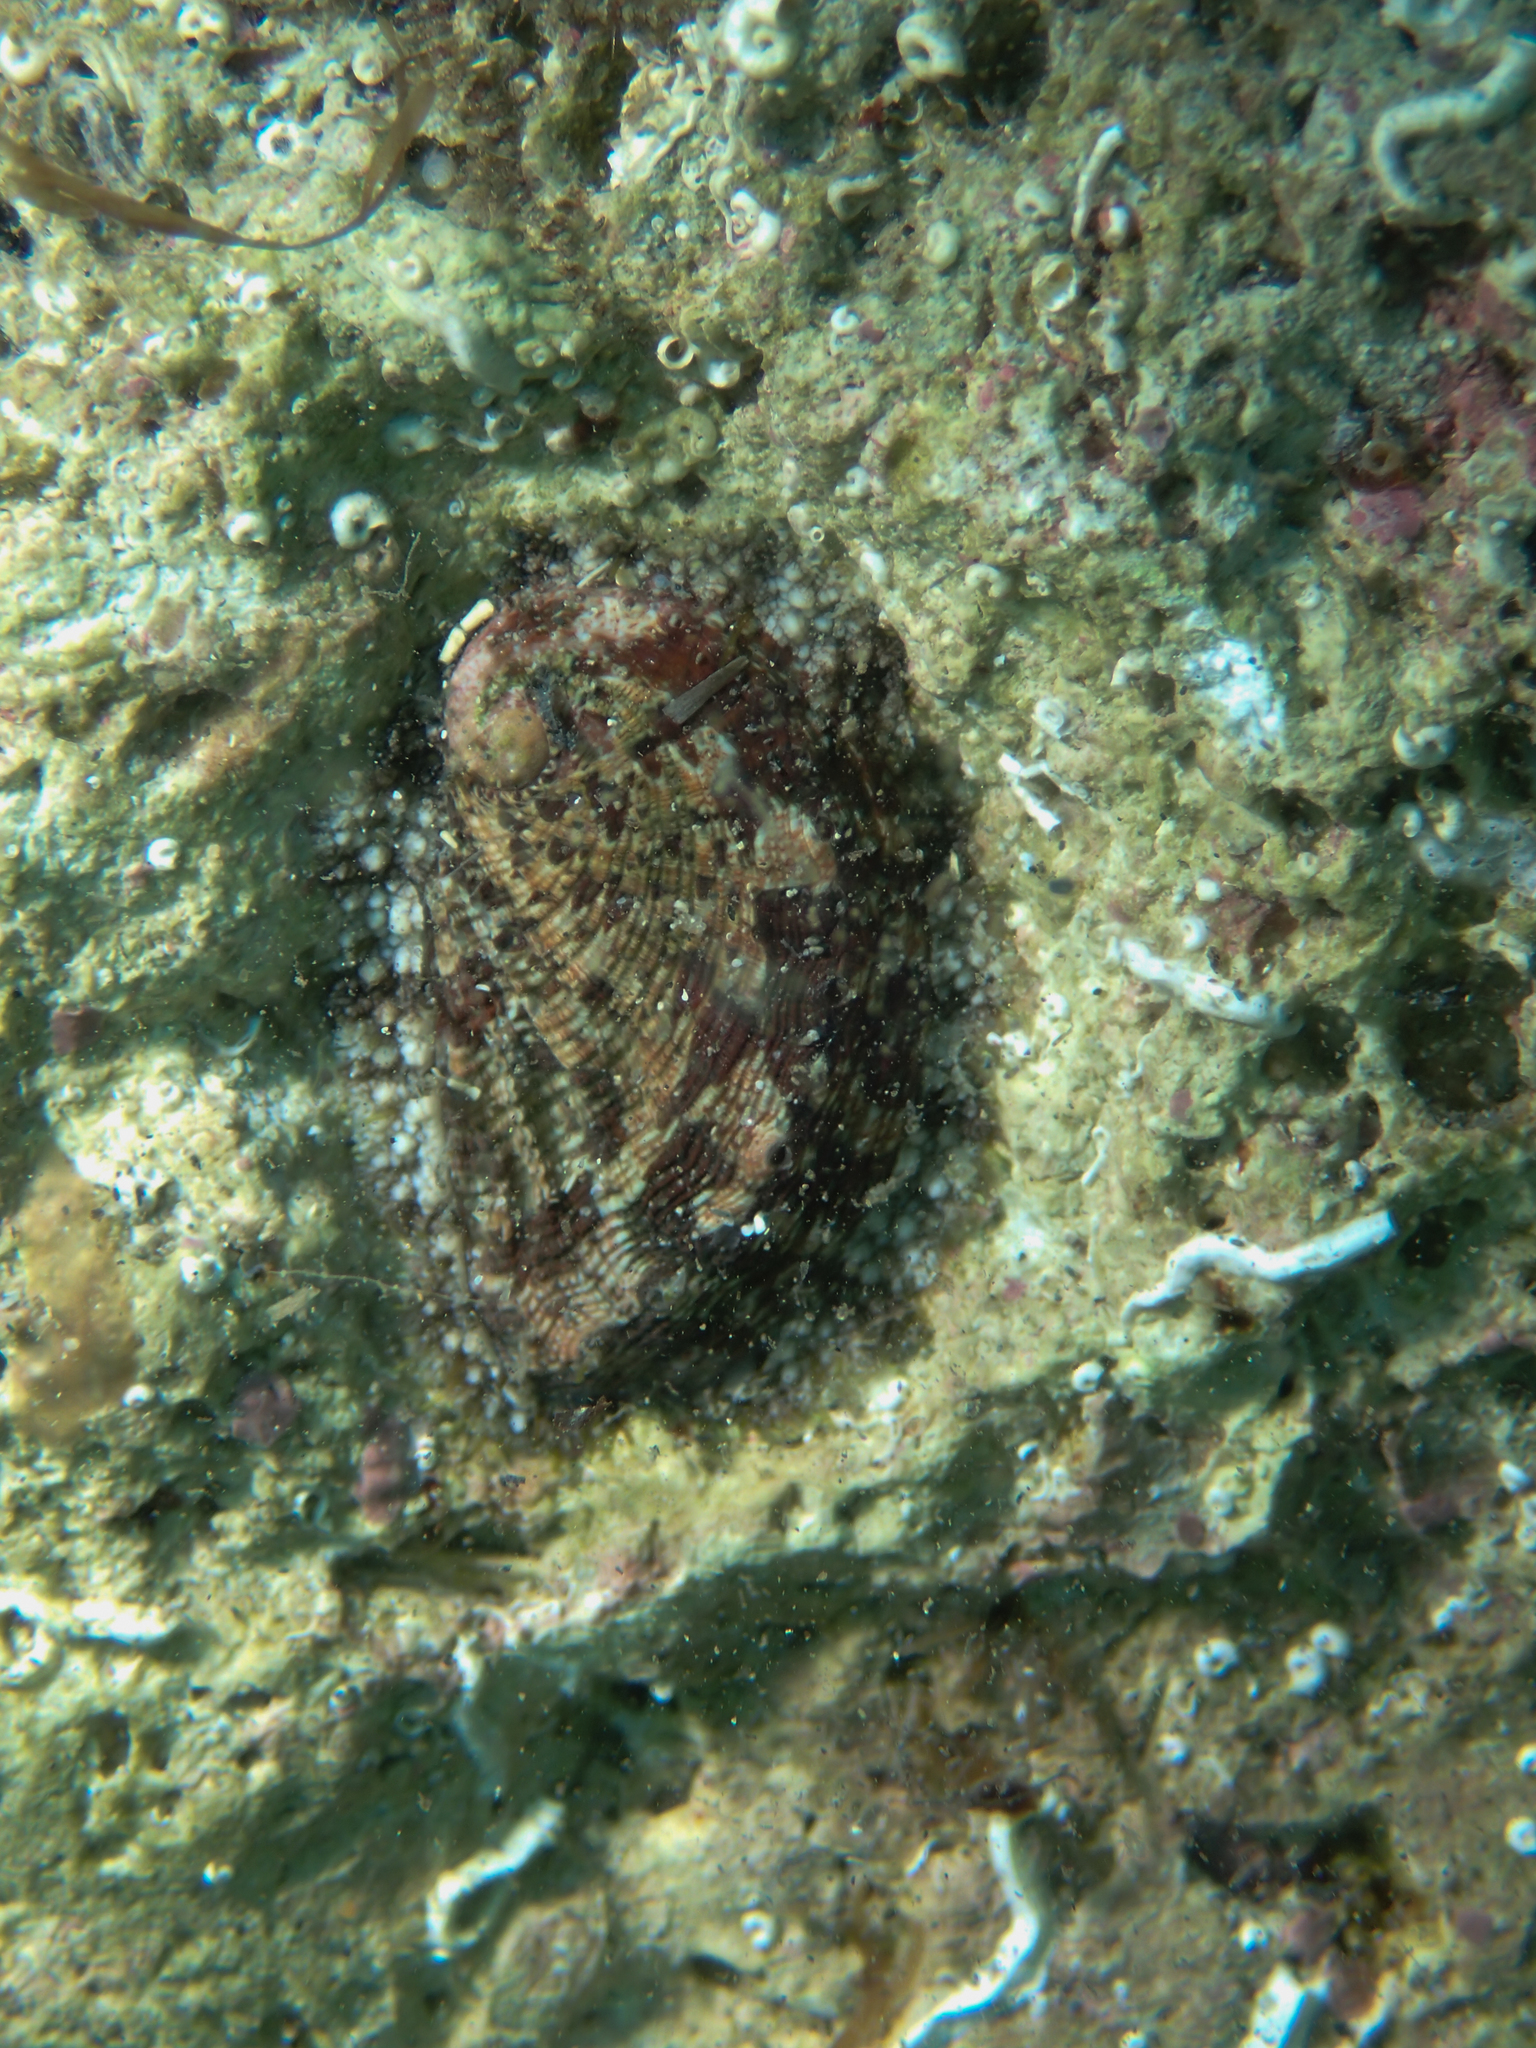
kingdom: Animalia
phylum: Mollusca
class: Gastropoda
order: Lepetellida
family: Haliotidae
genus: Haliotis
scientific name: Haliotis tuberculata
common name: Green ormer
